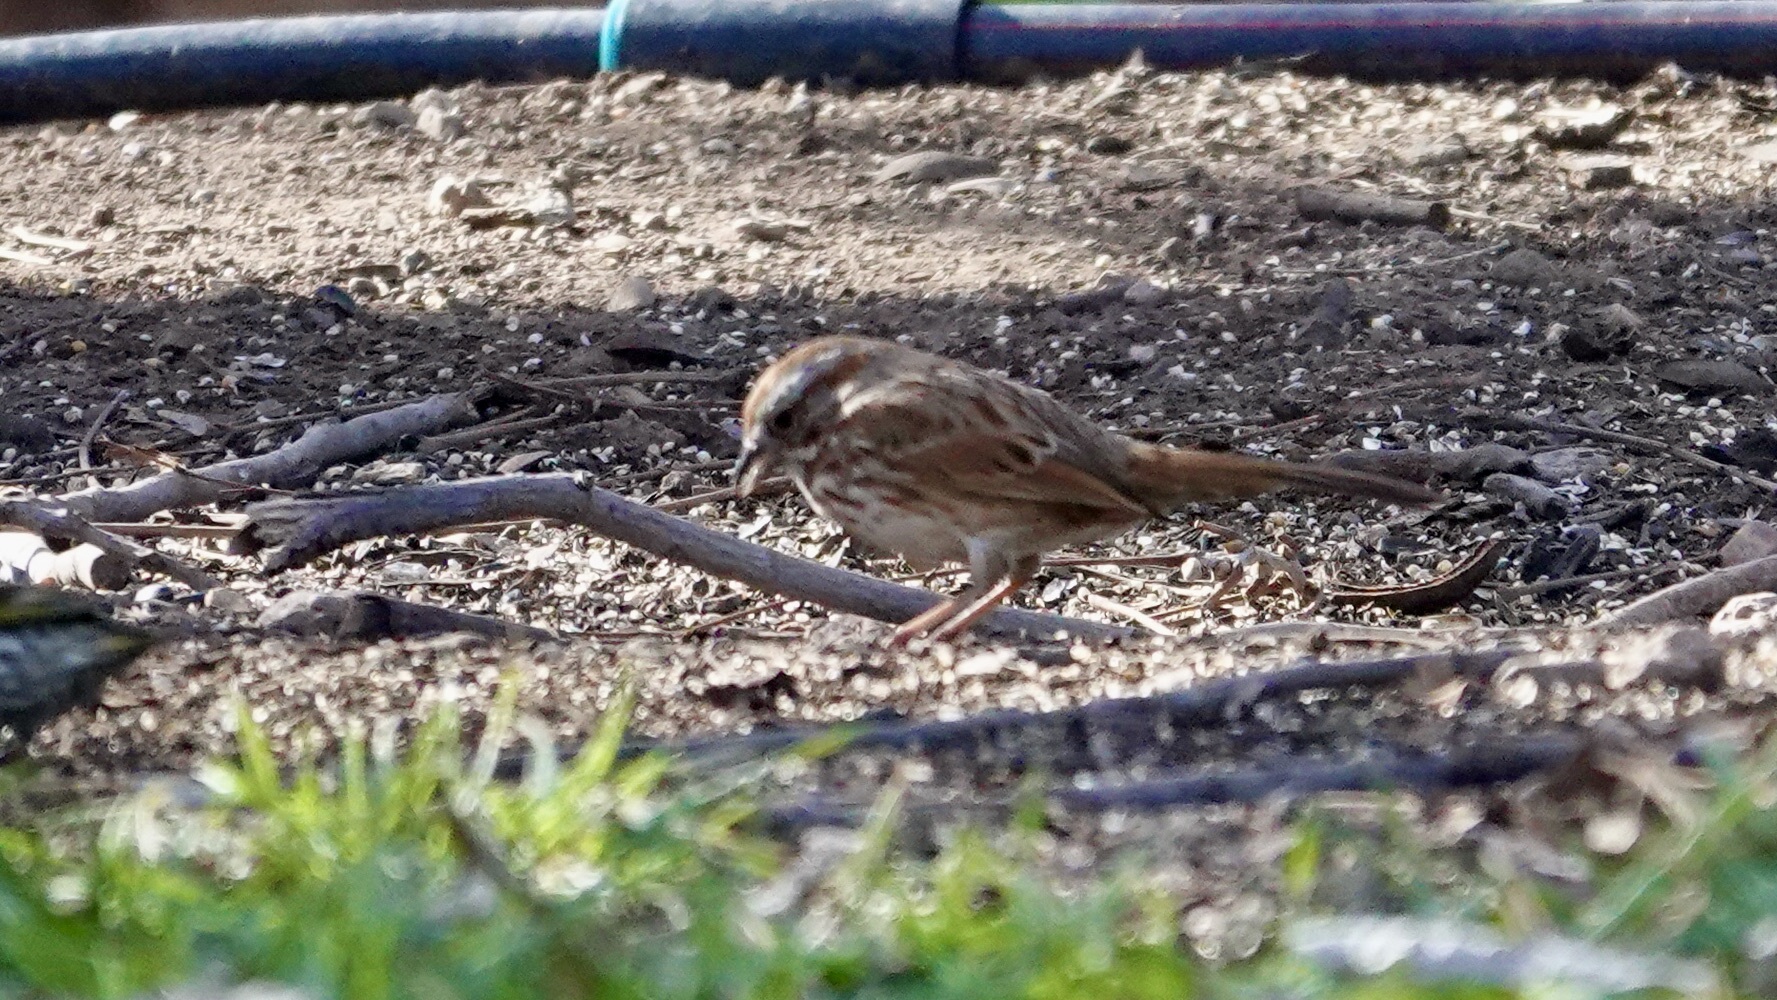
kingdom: Animalia
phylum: Chordata
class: Aves
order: Passeriformes
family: Passerellidae
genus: Melospiza
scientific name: Melospiza melodia
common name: Song sparrow
